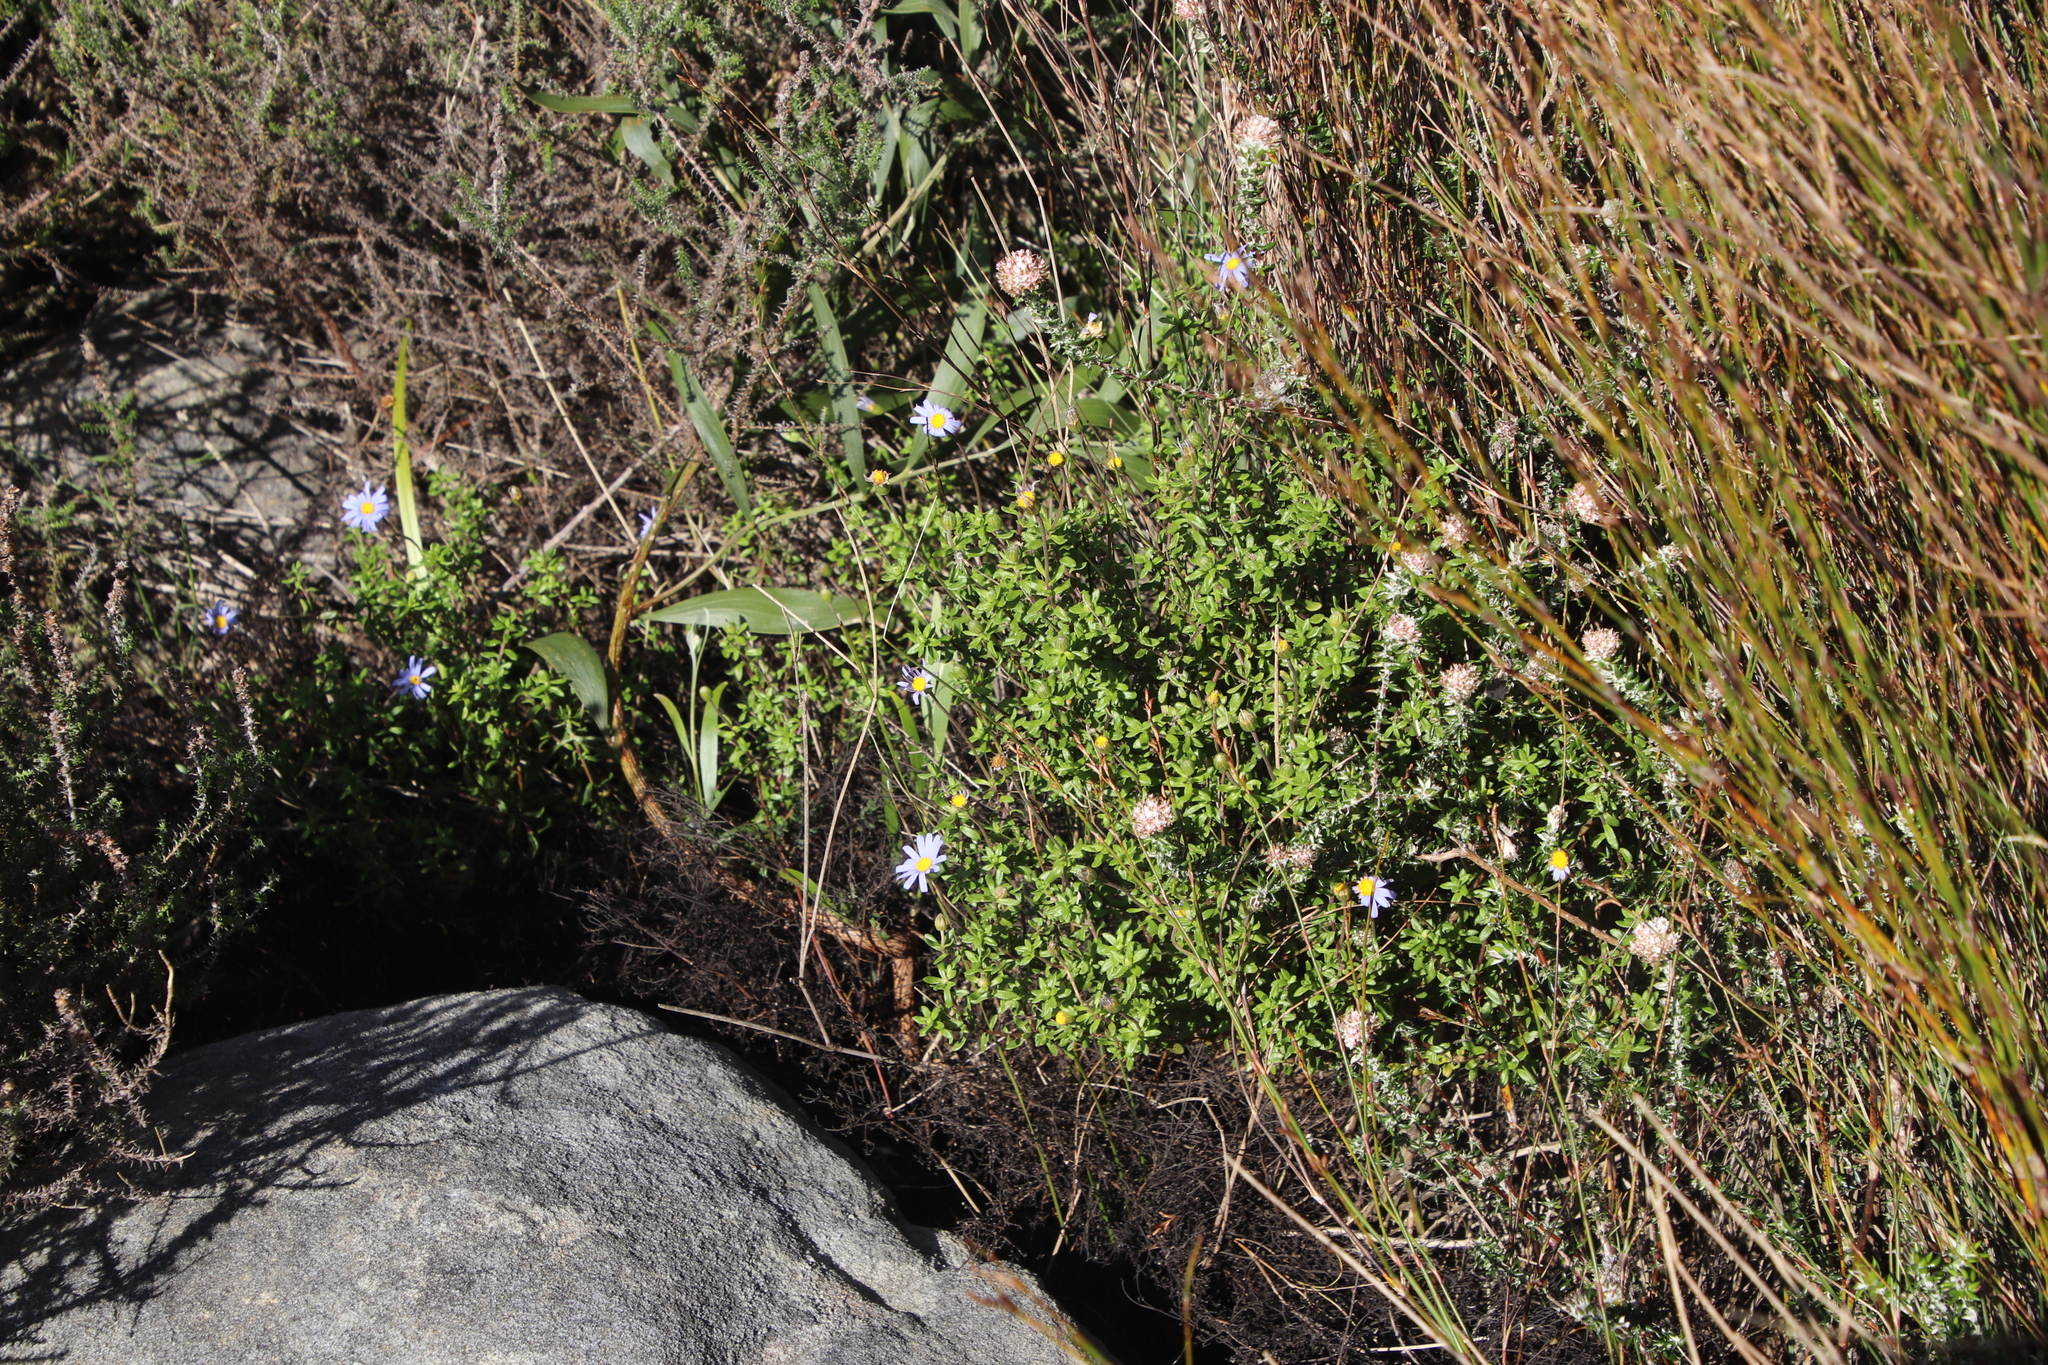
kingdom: Plantae
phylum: Tracheophyta
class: Magnoliopsida
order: Asterales
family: Asteraceae
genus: Felicia
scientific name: Felicia aethiopica
